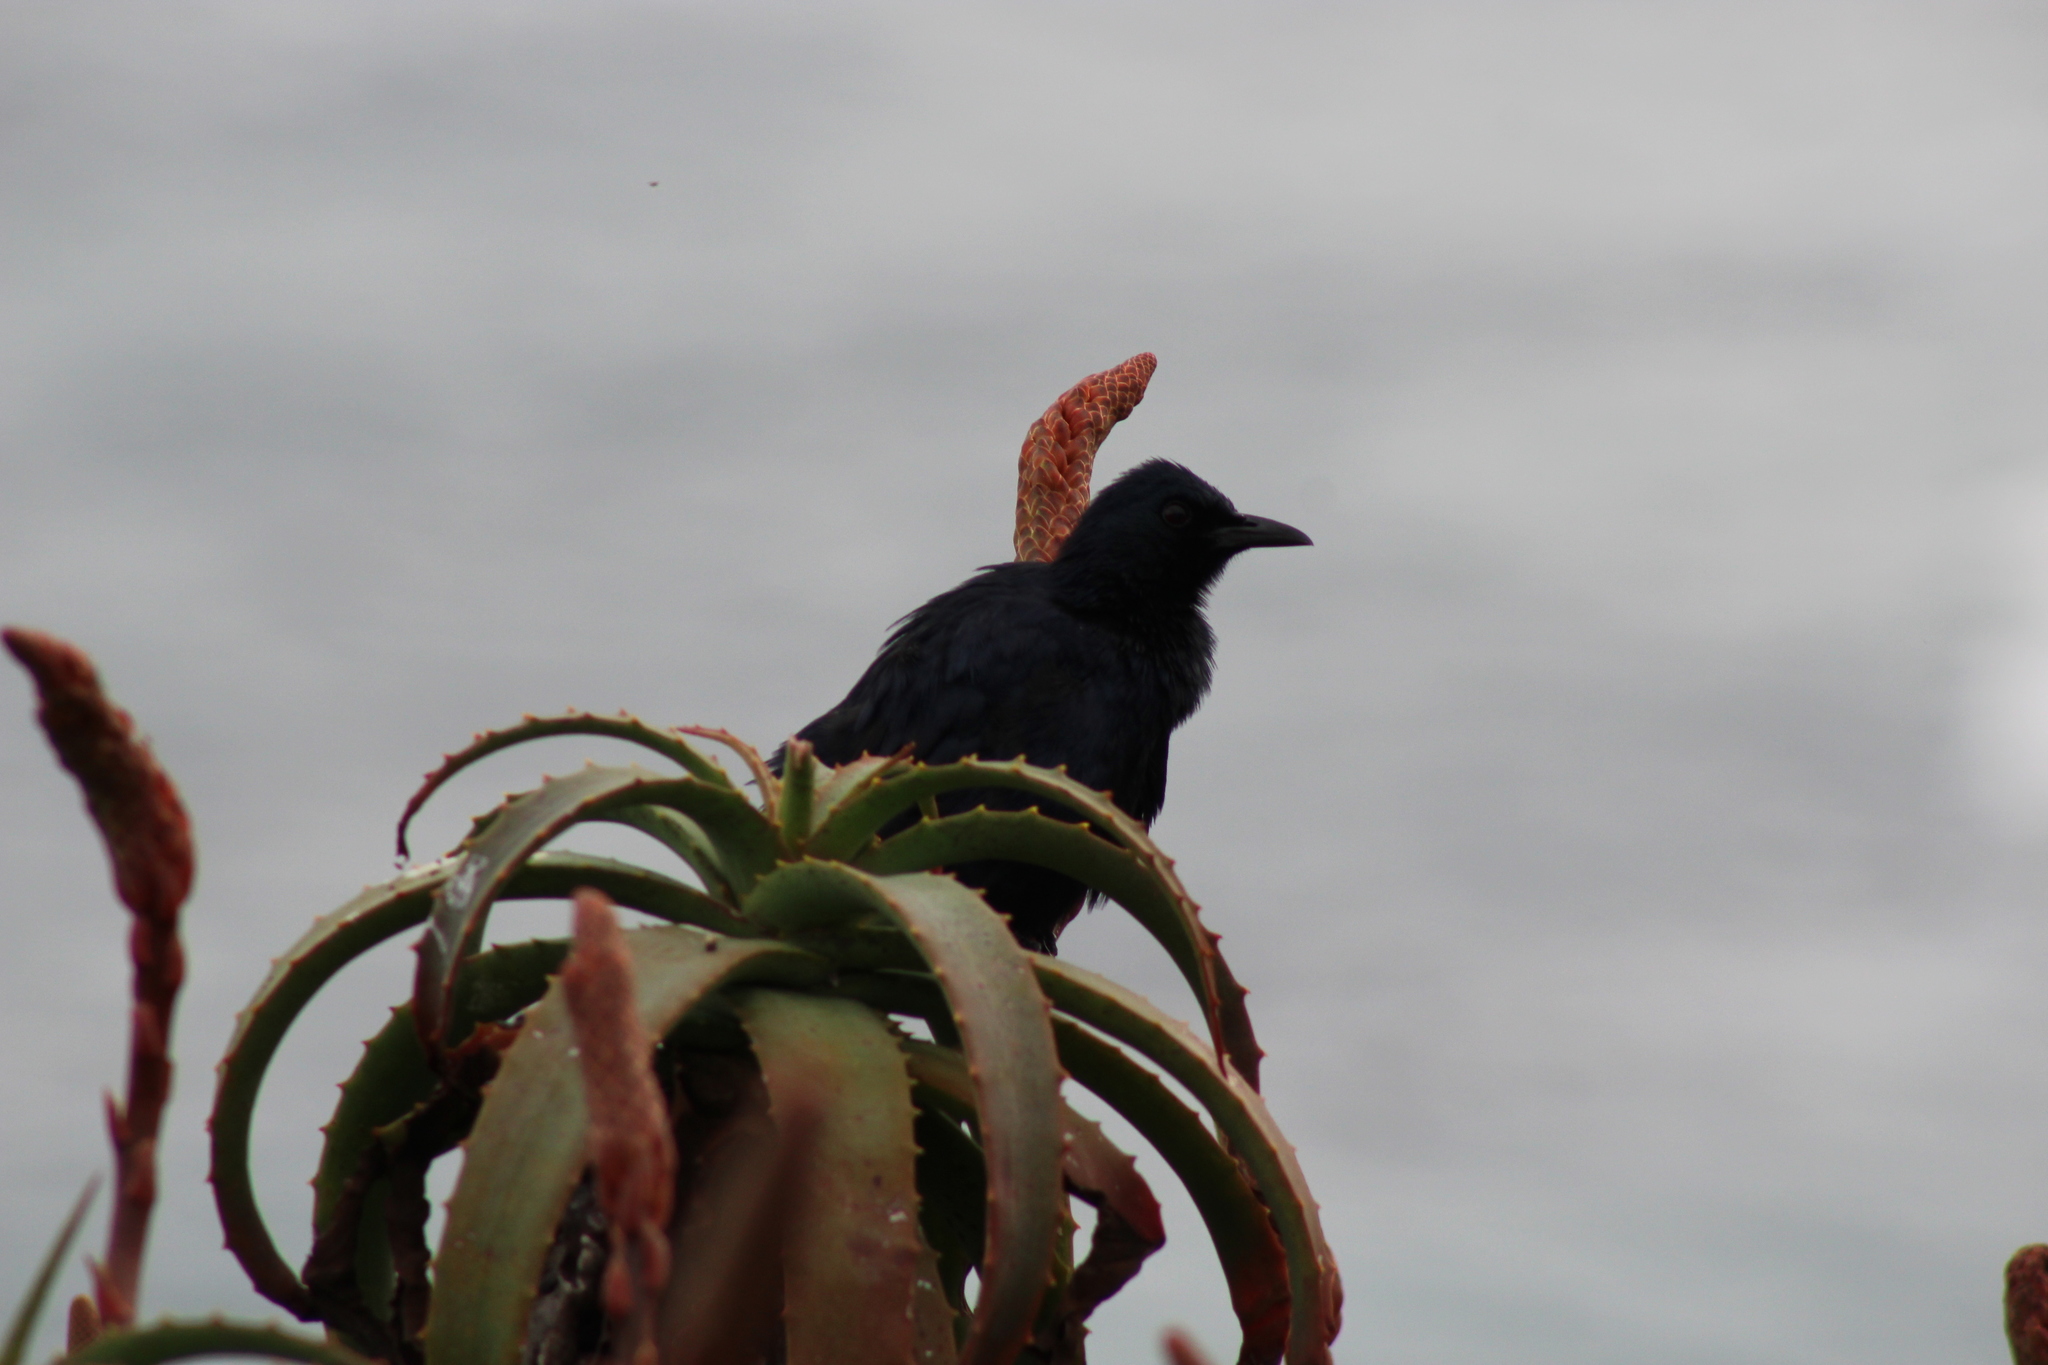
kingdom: Animalia
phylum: Chordata
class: Aves
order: Passeriformes
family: Sturnidae
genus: Onychognathus
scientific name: Onychognathus morio
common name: Red-winged starling
